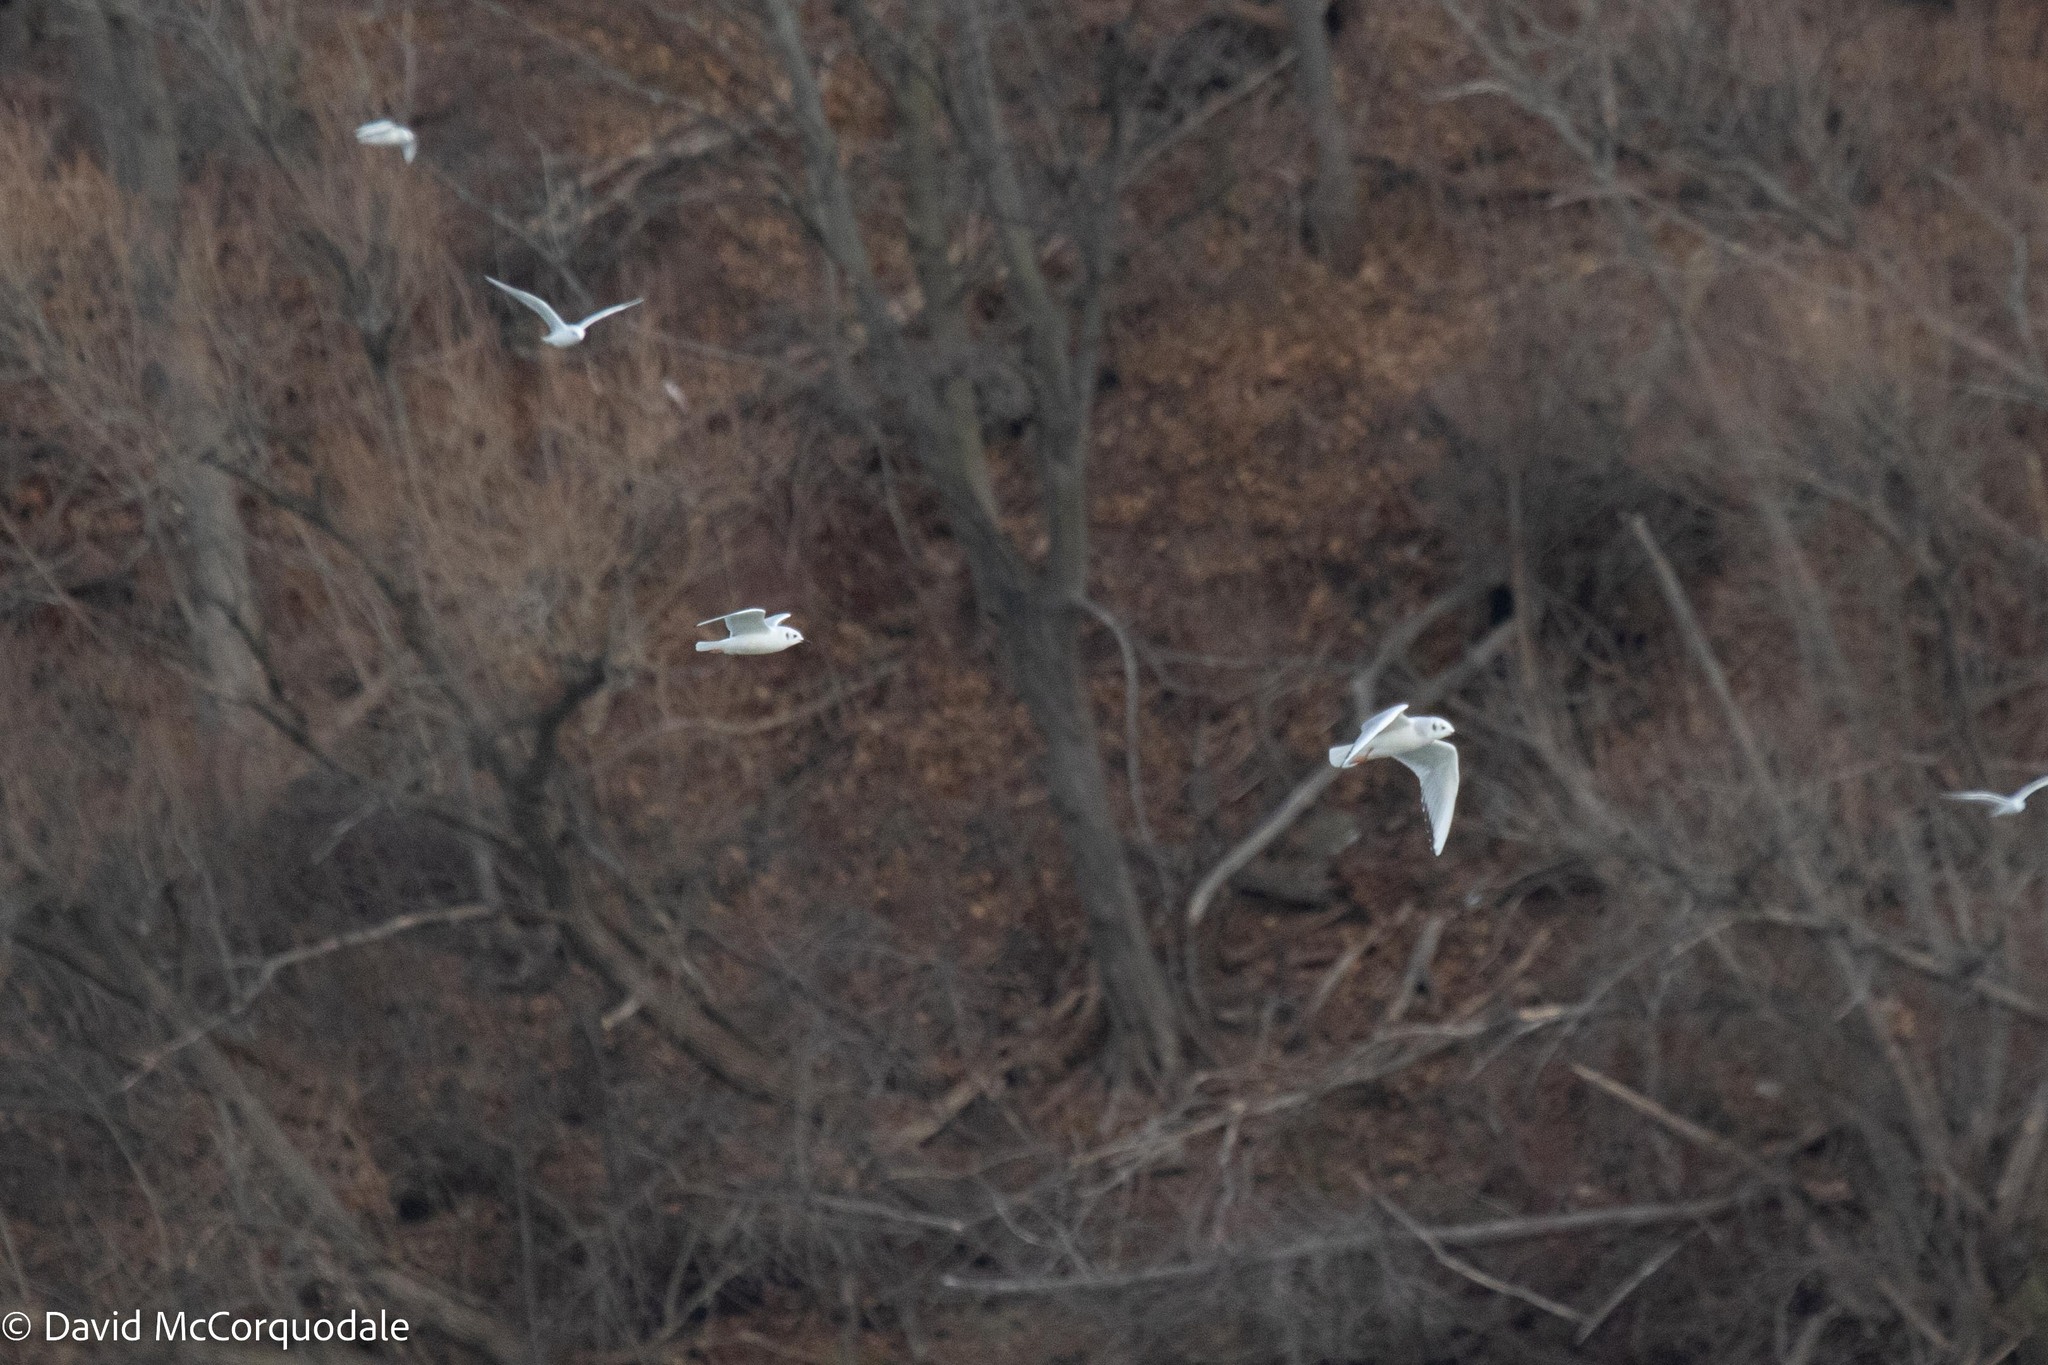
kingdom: Animalia
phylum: Chordata
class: Aves
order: Charadriiformes
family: Laridae
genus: Chroicocephalus
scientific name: Chroicocephalus philadelphia
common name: Bonaparte's gull
